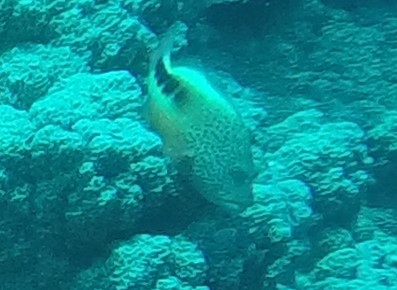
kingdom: Animalia
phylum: Chordata
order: Perciformes
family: Cirrhitidae
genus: Paracirrhites
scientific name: Paracirrhites forsteri
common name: Freckled hawkfish
